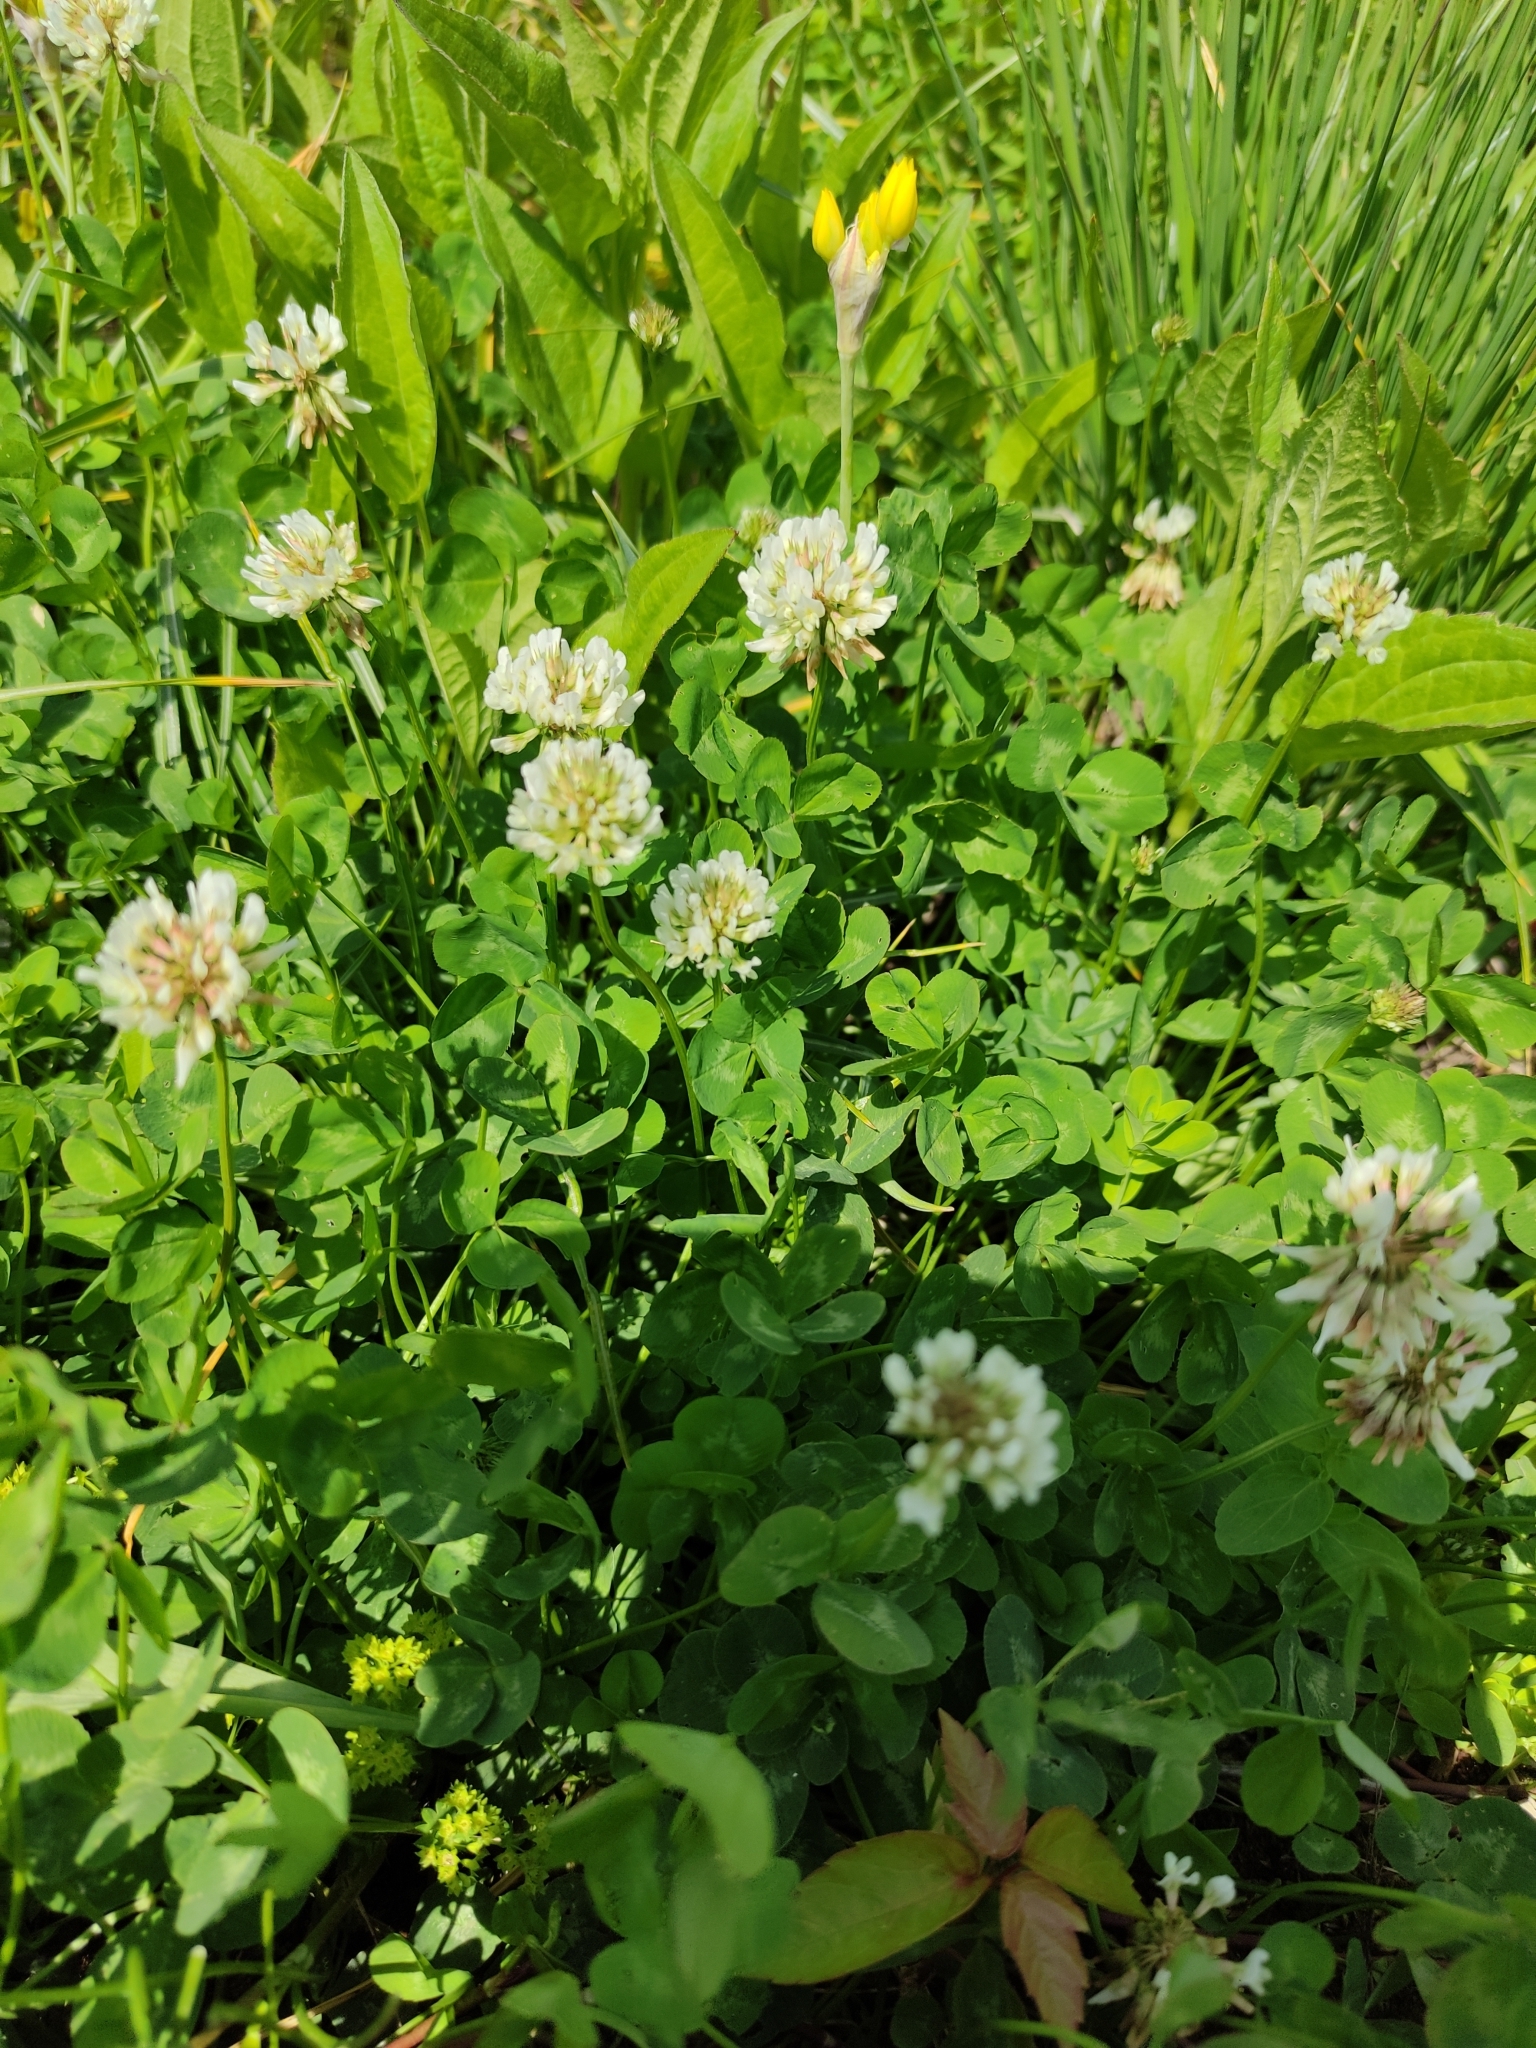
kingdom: Plantae
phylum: Tracheophyta
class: Magnoliopsida
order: Fabales
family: Fabaceae
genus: Trifolium
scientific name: Trifolium repens
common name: White clover
